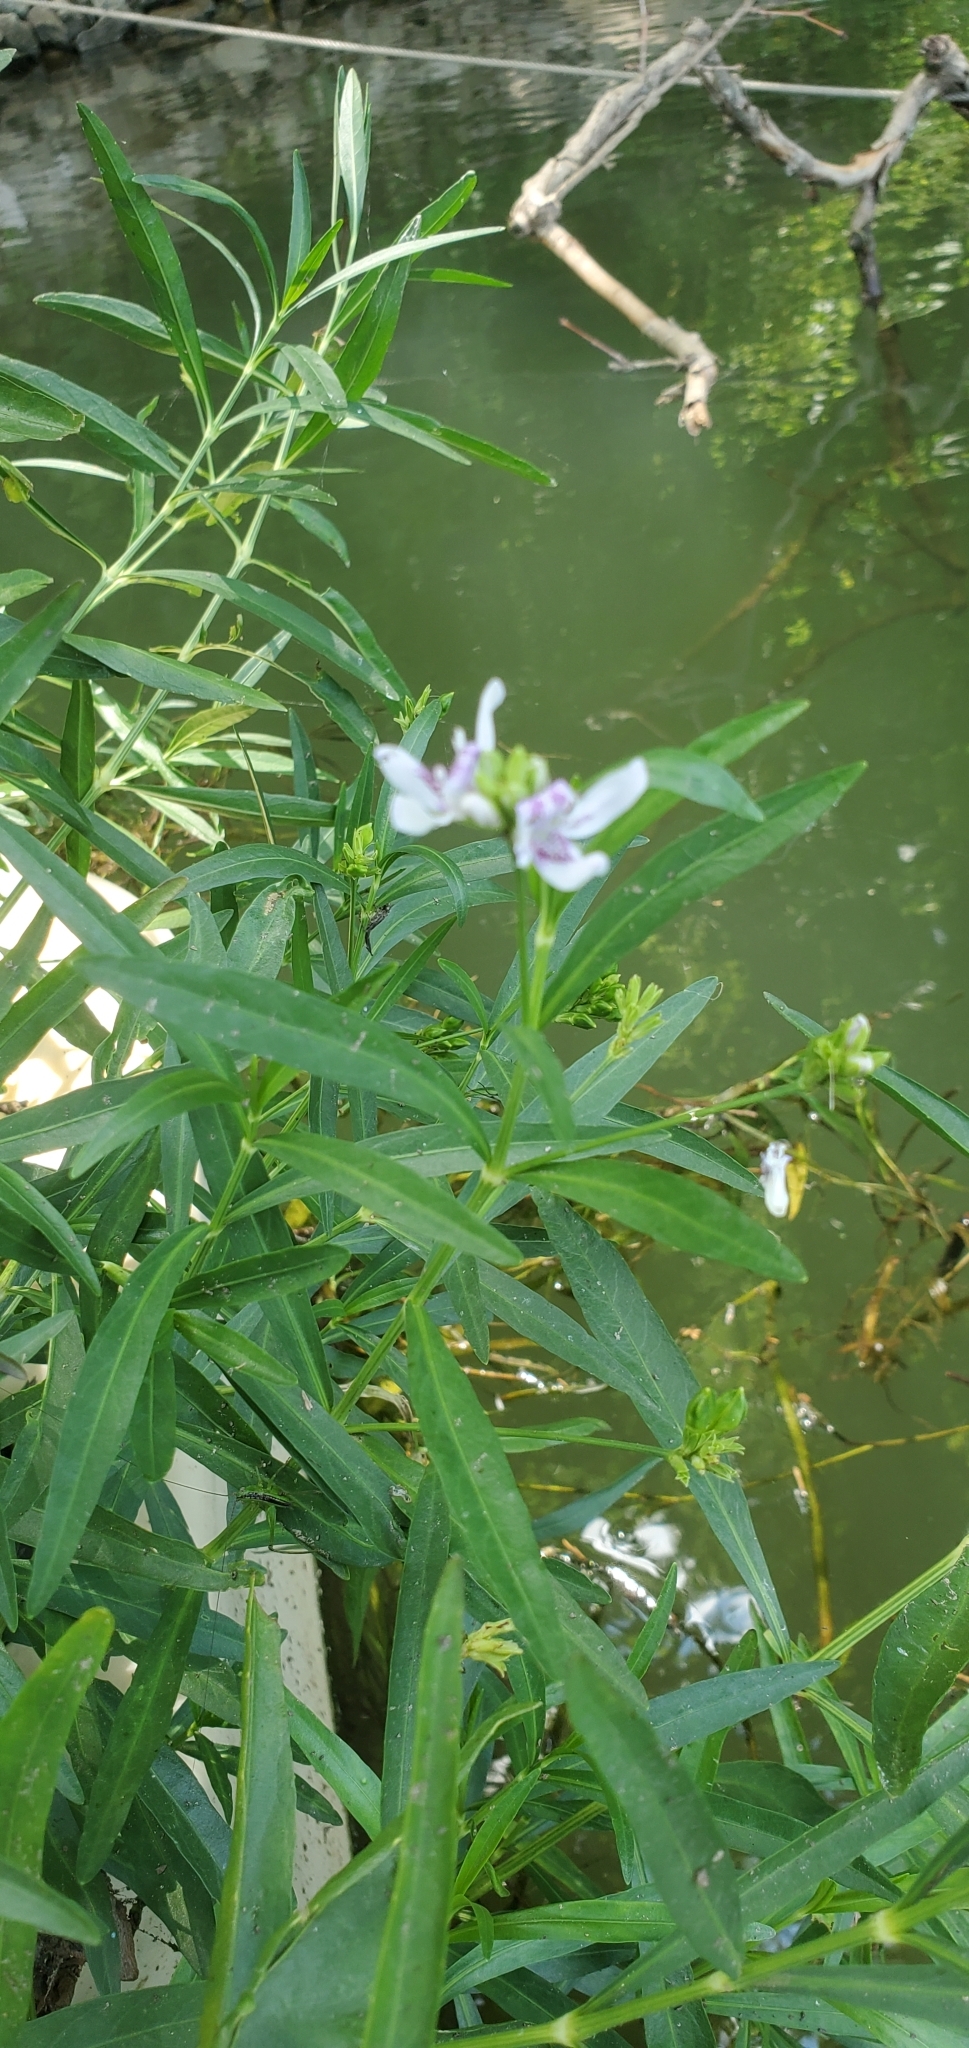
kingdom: Plantae
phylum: Tracheophyta
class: Magnoliopsida
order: Lamiales
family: Acanthaceae
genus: Dianthera
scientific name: Dianthera americana
